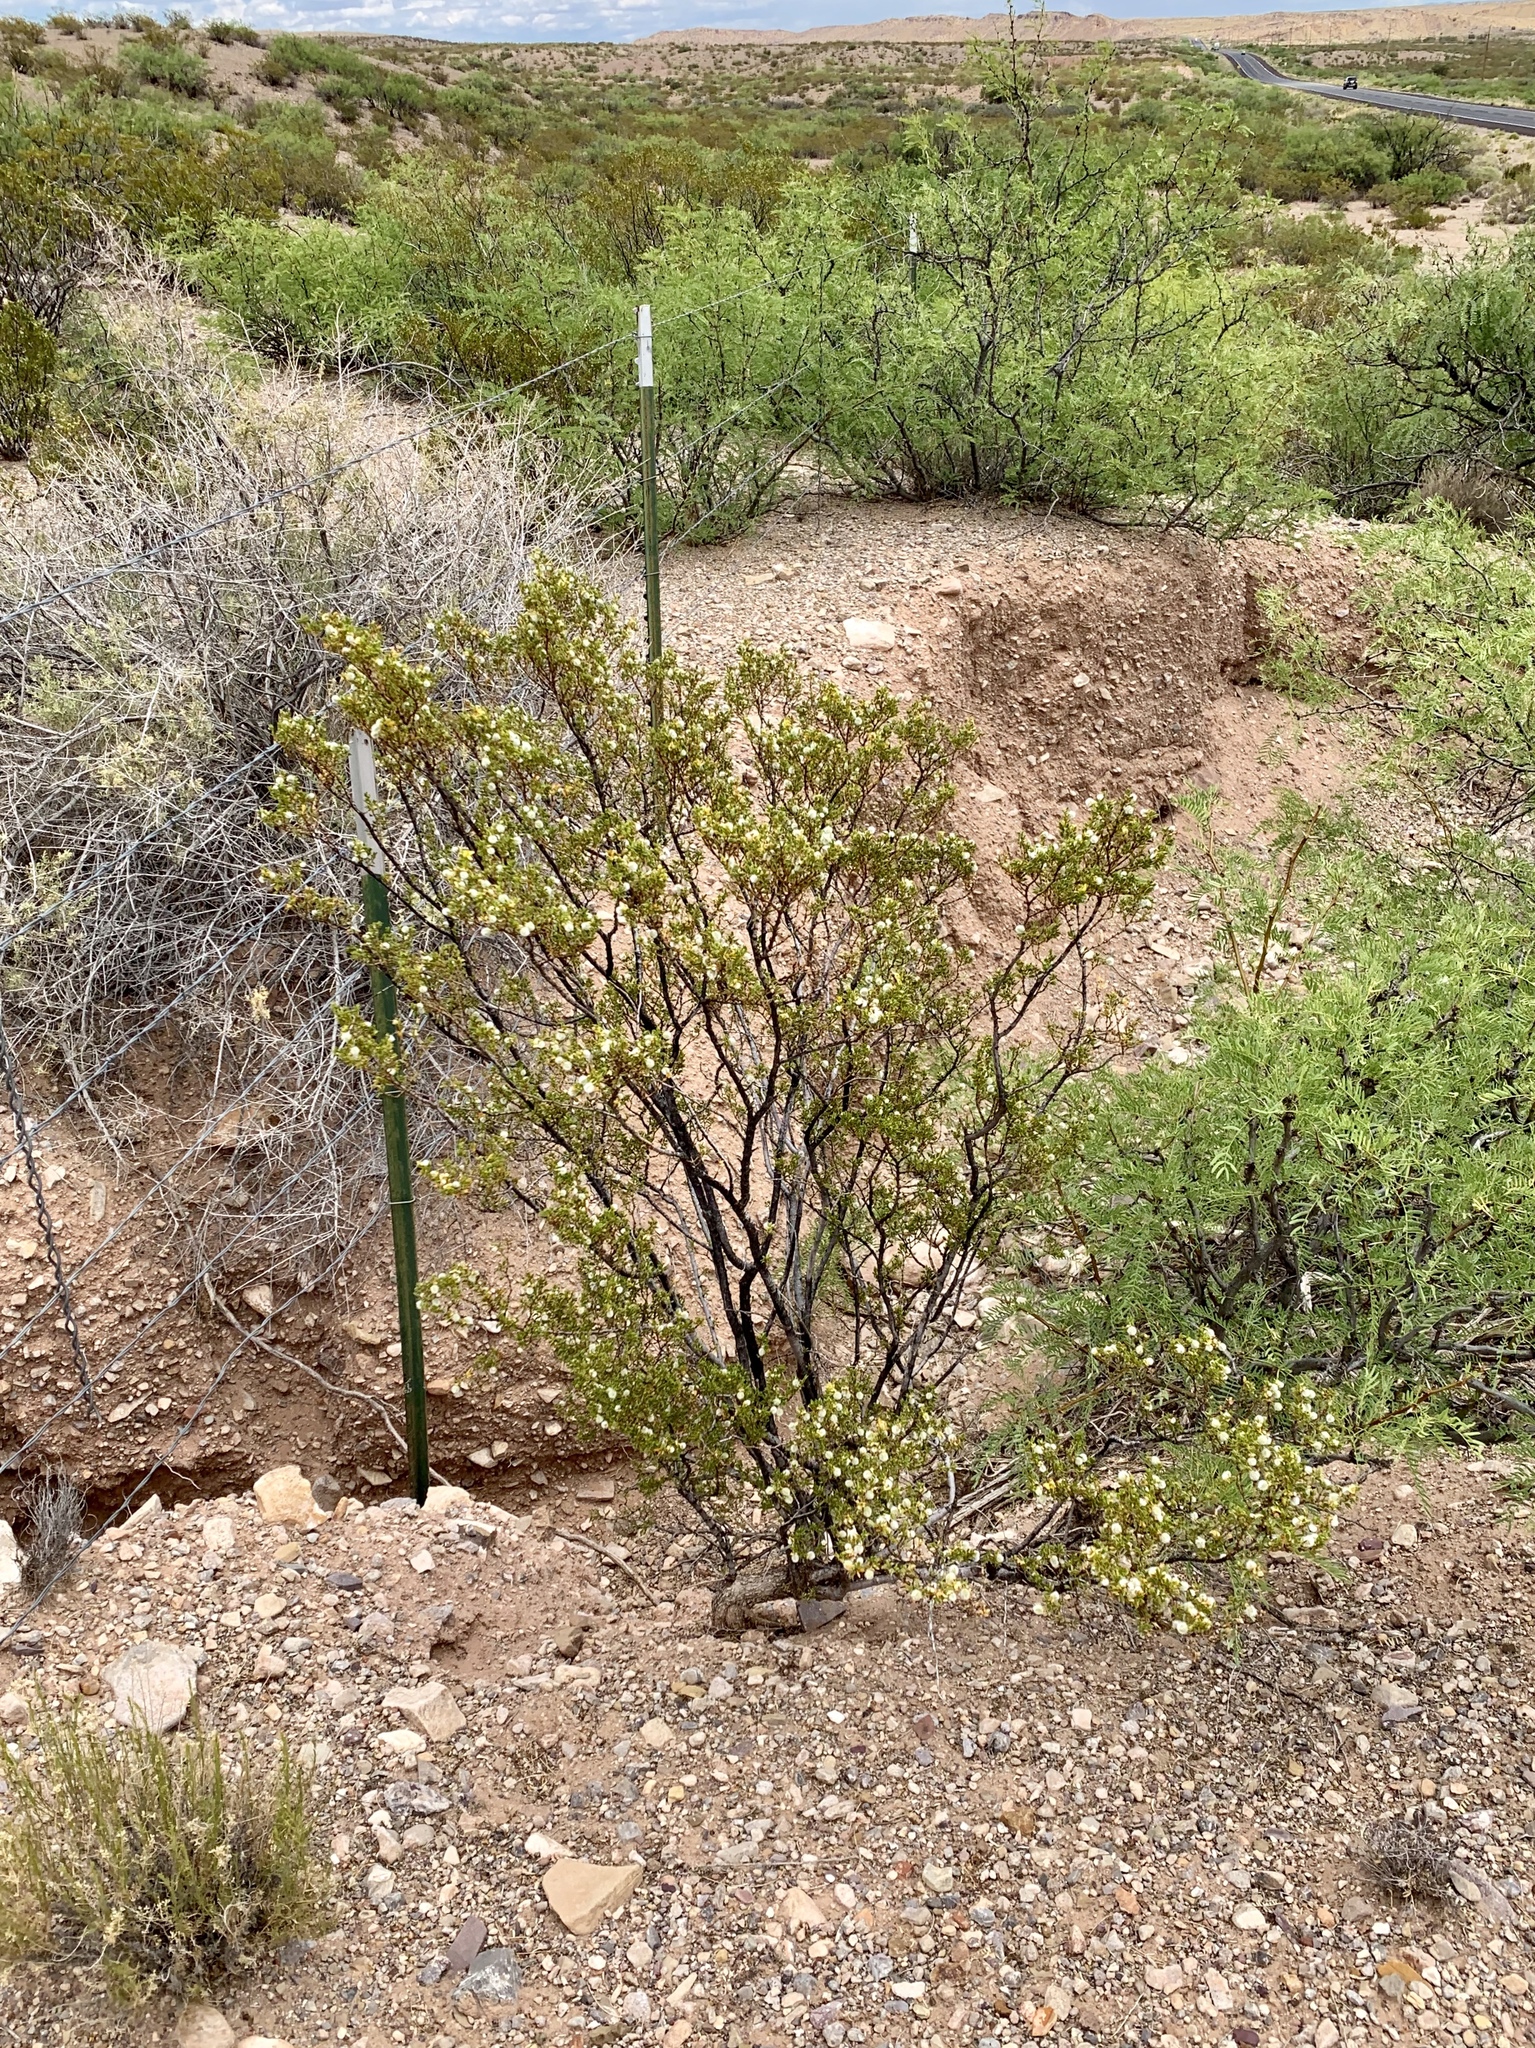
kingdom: Plantae
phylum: Tracheophyta
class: Magnoliopsida
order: Zygophyllales
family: Zygophyllaceae
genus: Larrea
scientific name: Larrea tridentata
